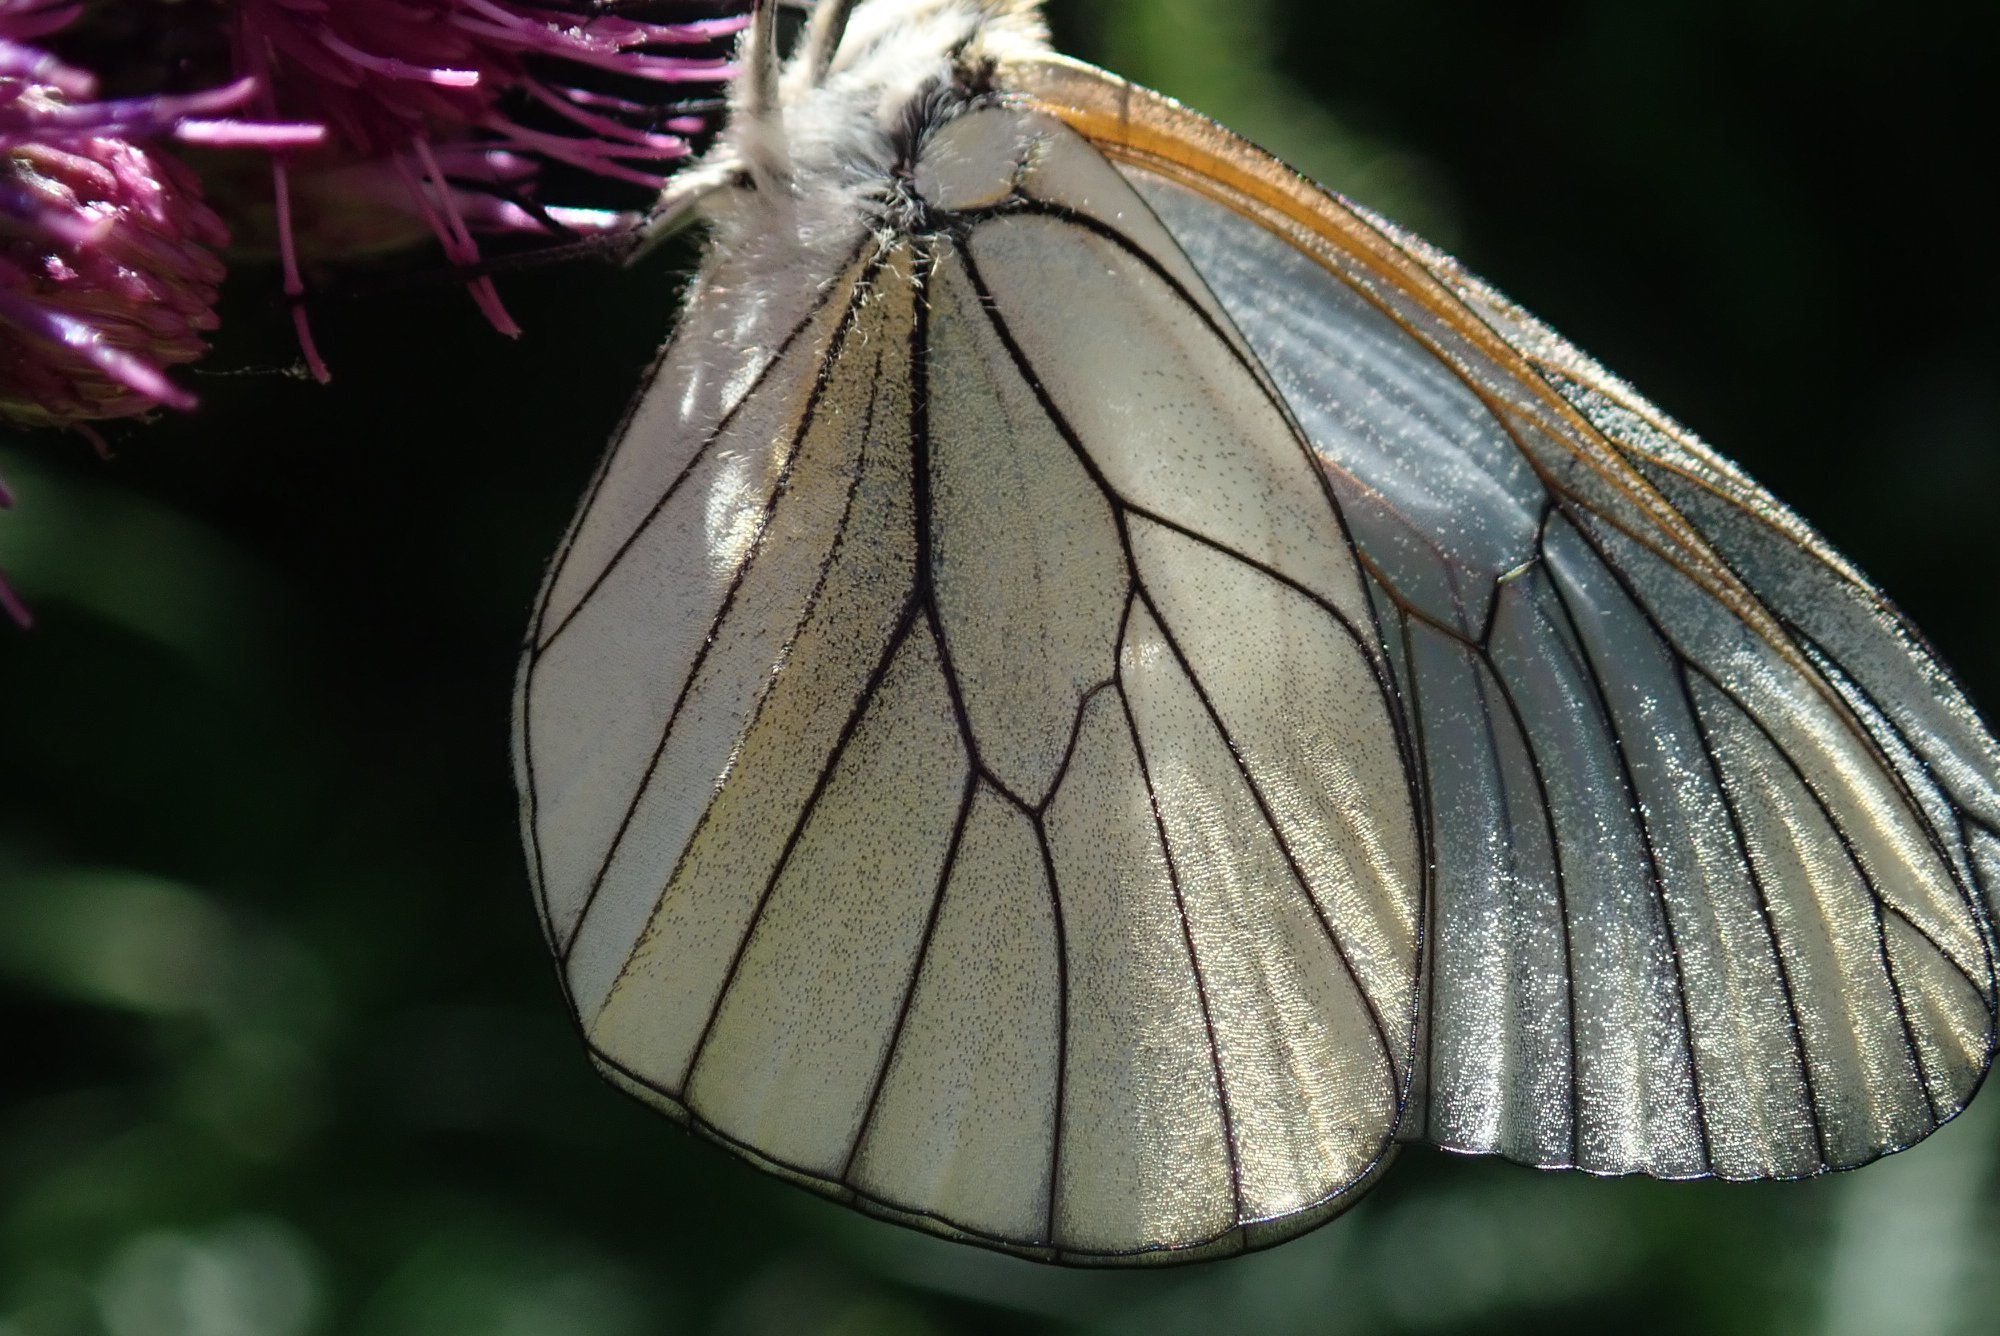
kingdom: Animalia
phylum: Arthropoda
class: Insecta
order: Lepidoptera
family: Pieridae
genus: Aporia
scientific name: Aporia crataegi
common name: Black-veined white
